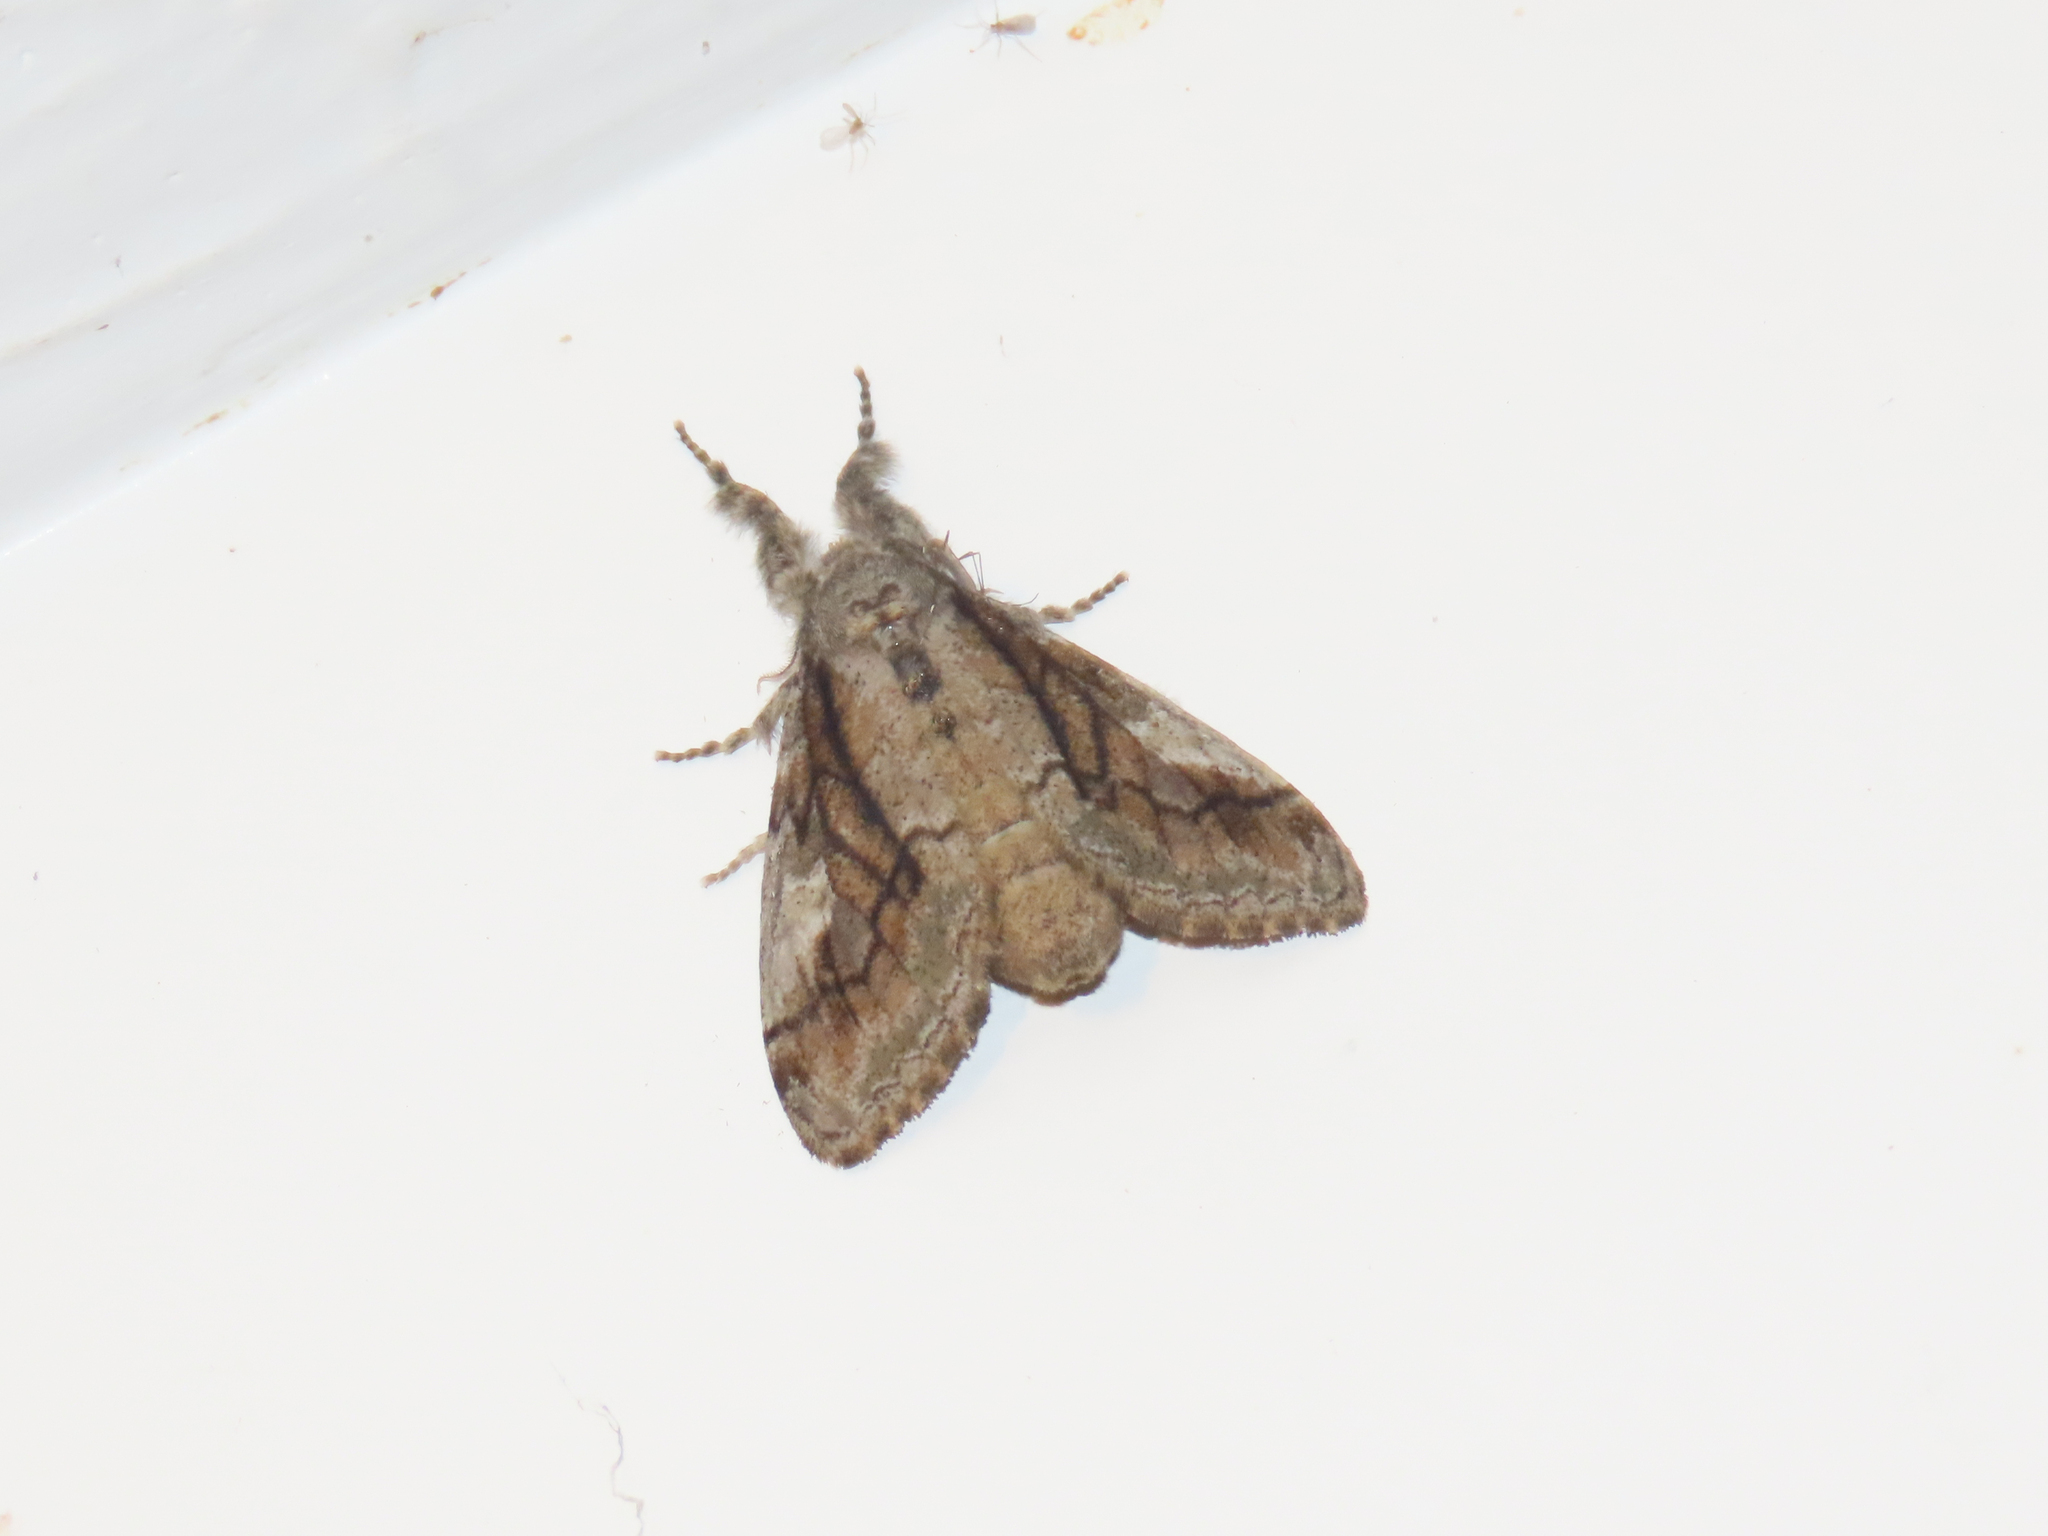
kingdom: Animalia
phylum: Arthropoda
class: Insecta
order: Lepidoptera
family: Erebidae
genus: Dasychira
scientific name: Dasychira obliquata
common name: Streaked tussock moth
